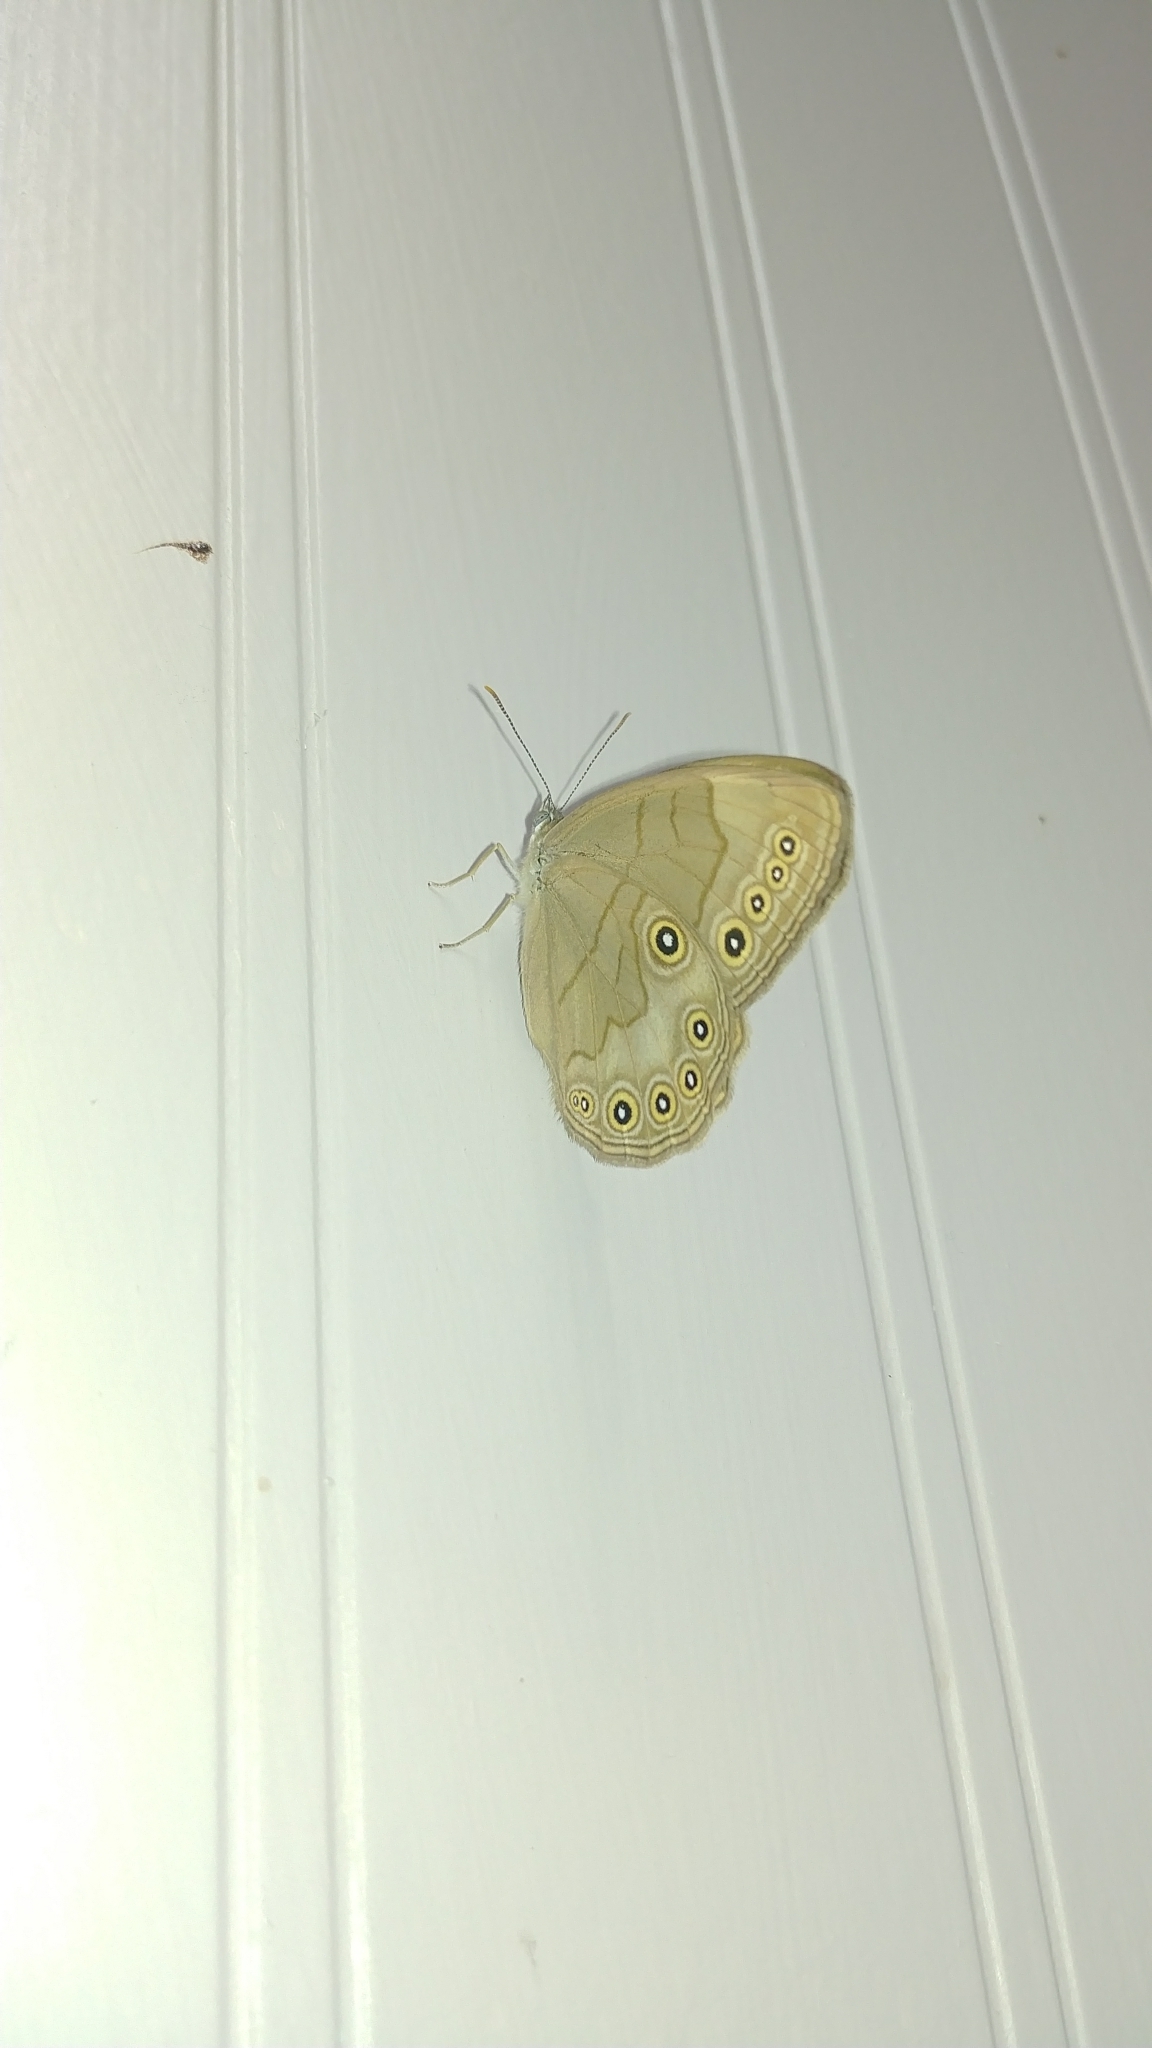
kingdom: Animalia
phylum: Arthropoda
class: Insecta
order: Lepidoptera
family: Nymphalidae
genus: Lethe
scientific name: Lethe eurydice
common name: Eyed brown
